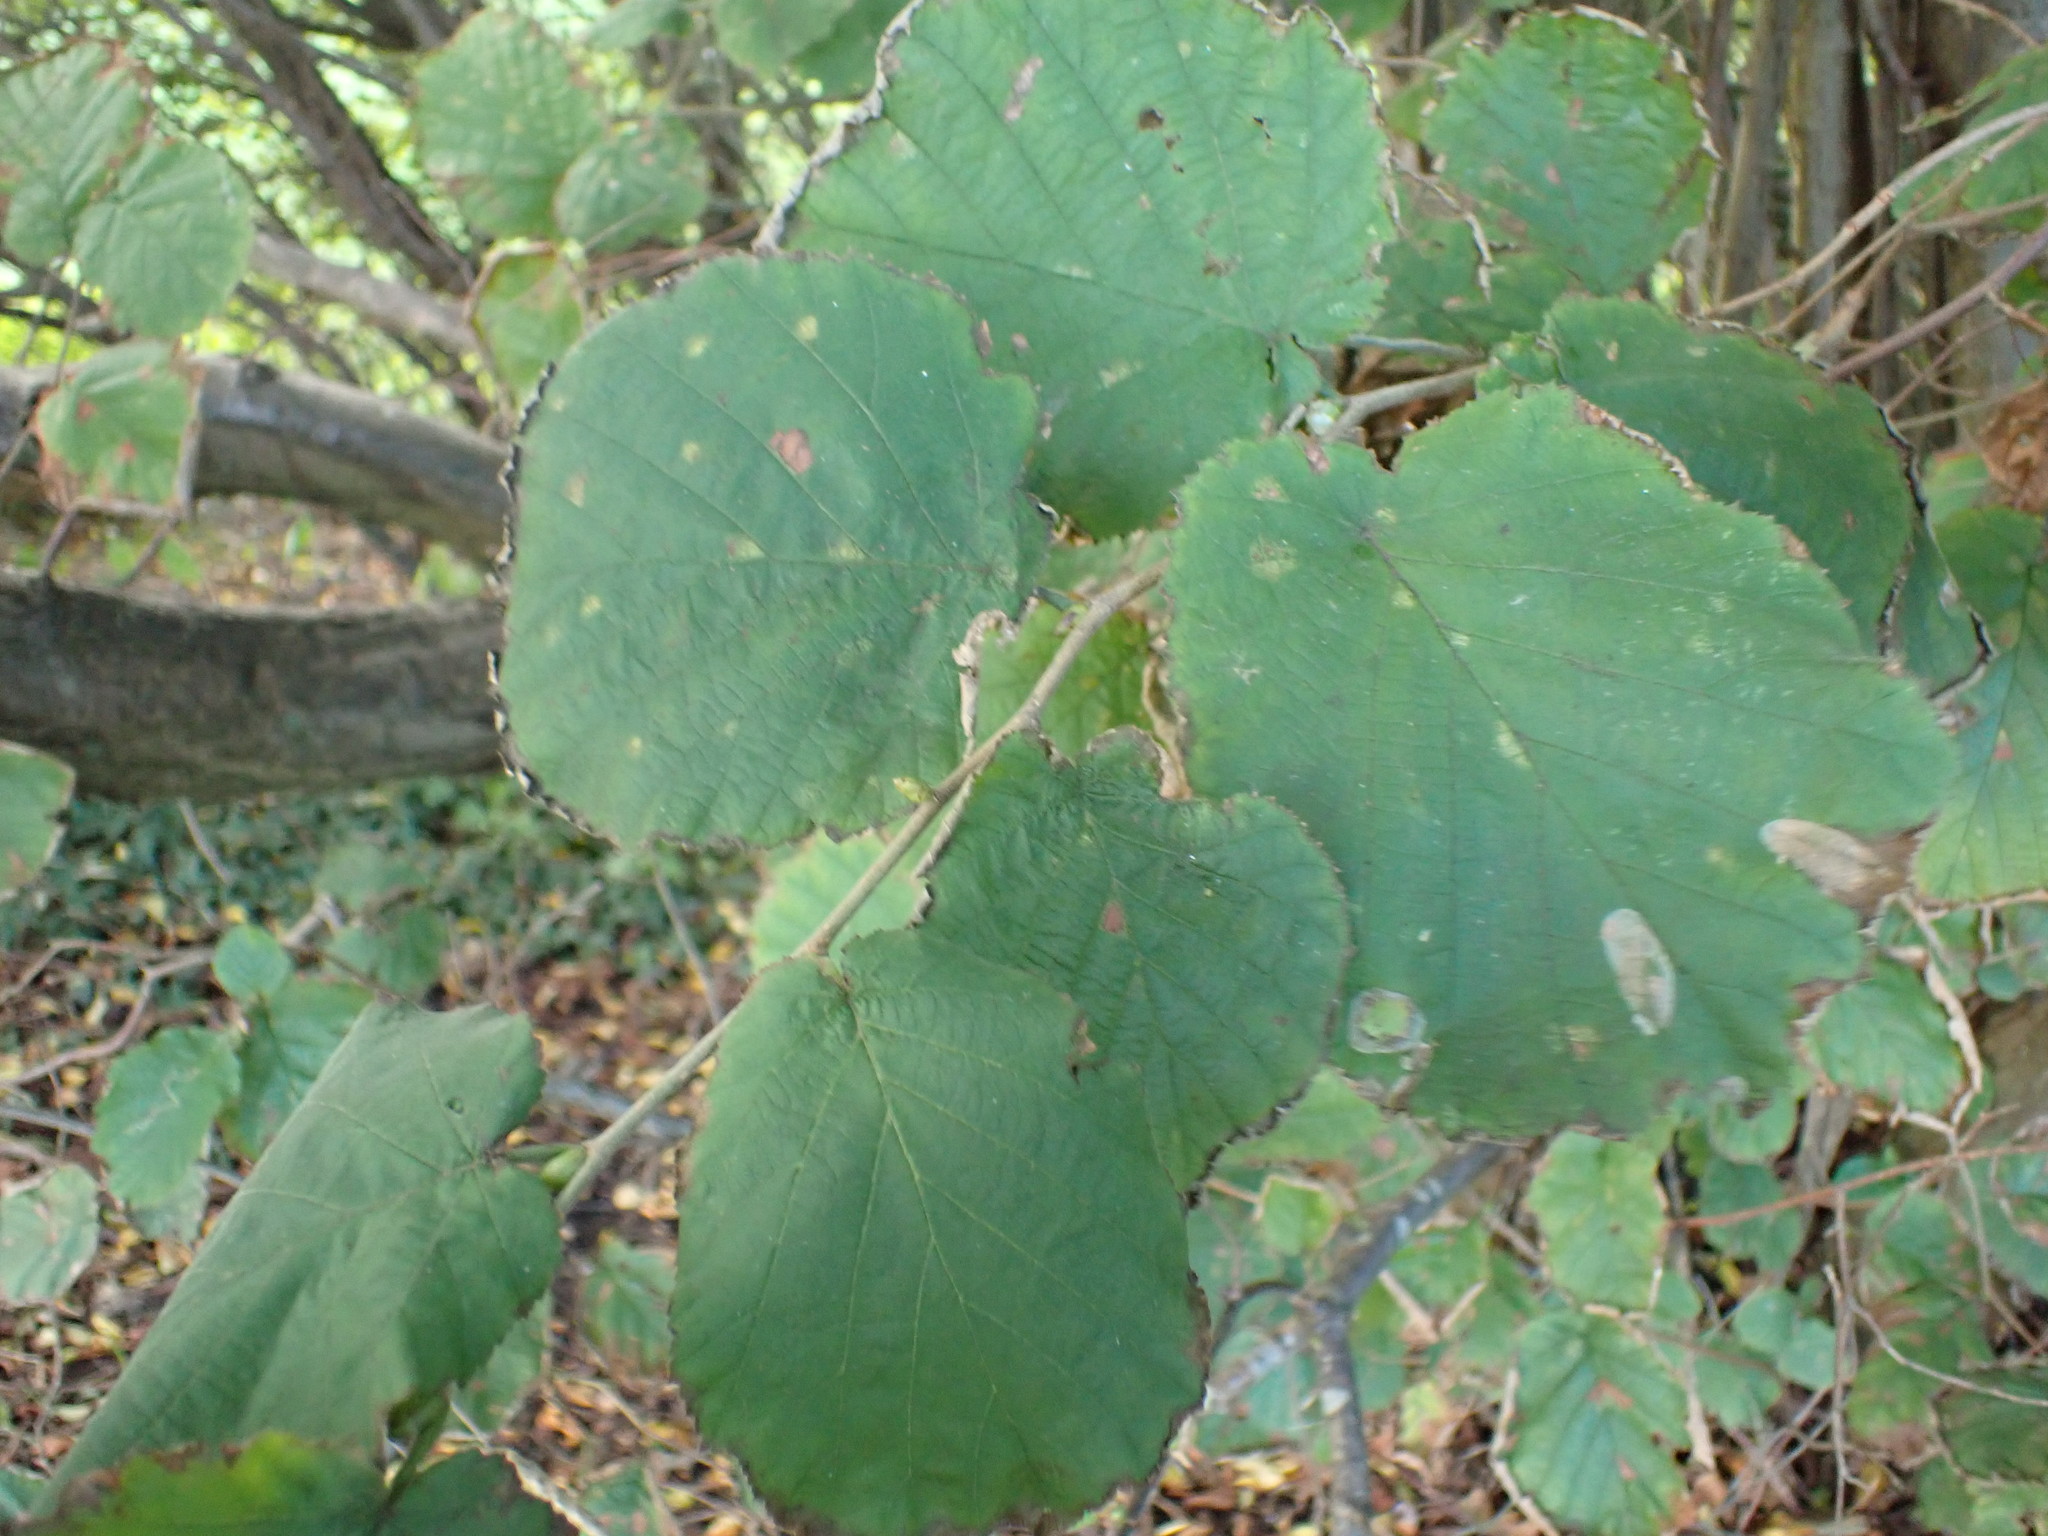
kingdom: Plantae
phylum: Tracheophyta
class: Magnoliopsida
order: Fagales
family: Betulaceae
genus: Corylus
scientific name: Corylus avellana
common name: European hazel
